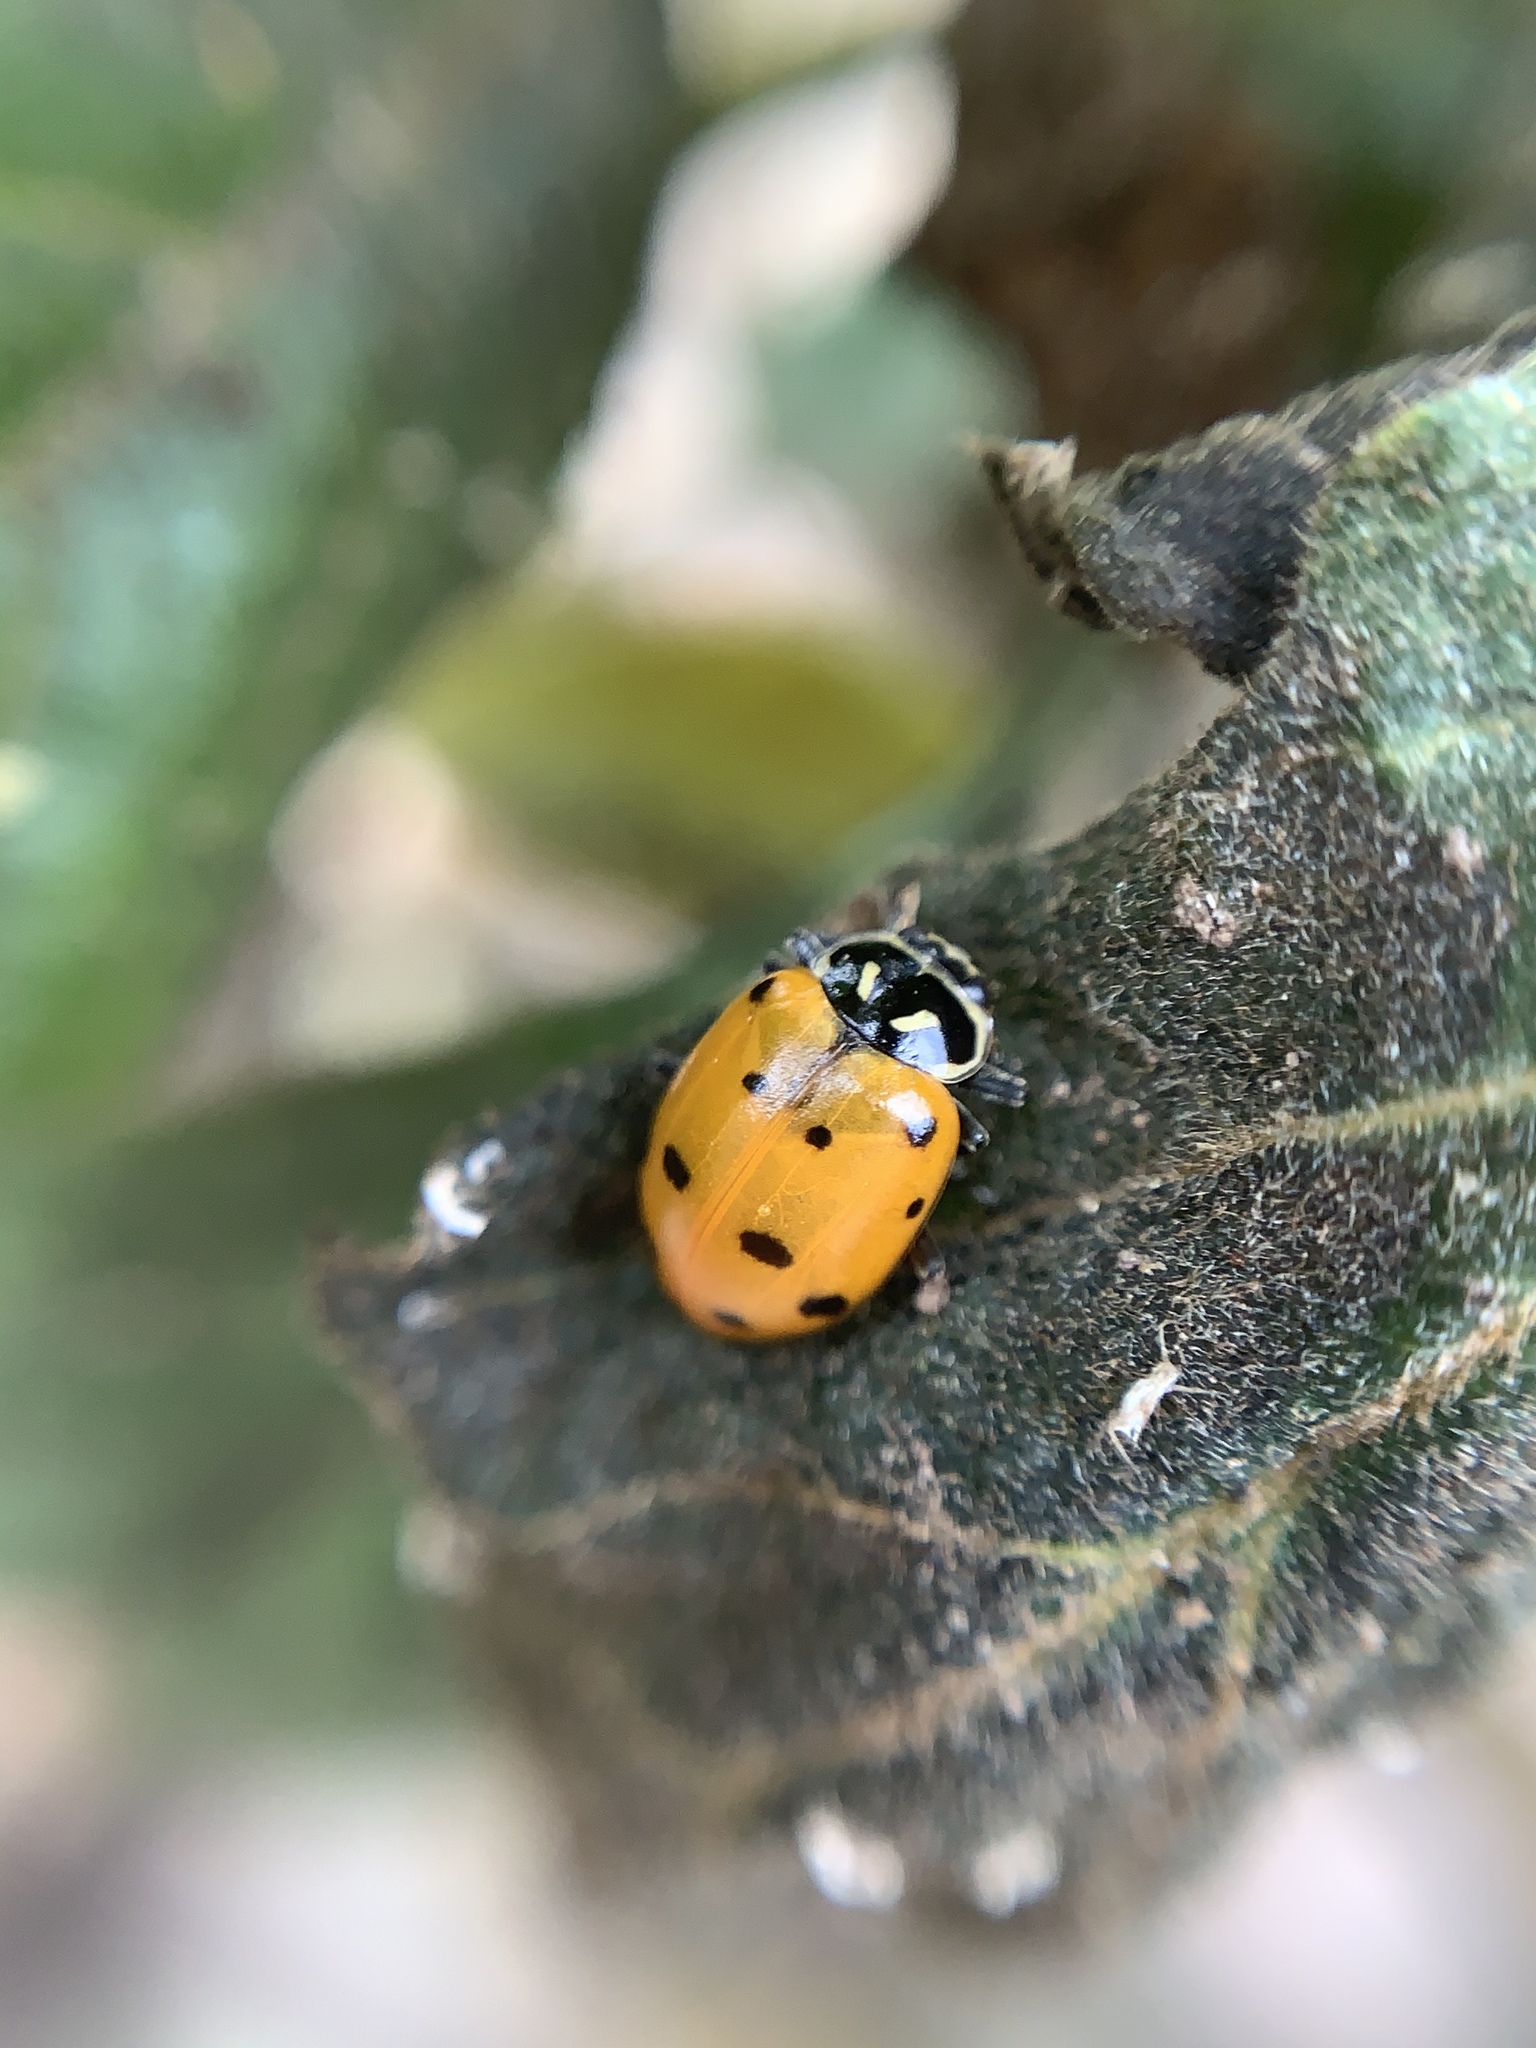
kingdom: Animalia
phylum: Arthropoda
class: Insecta
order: Coleoptera
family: Coccinellidae
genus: Hippodamia
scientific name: Hippodamia convergens
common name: Convergent lady beetle
